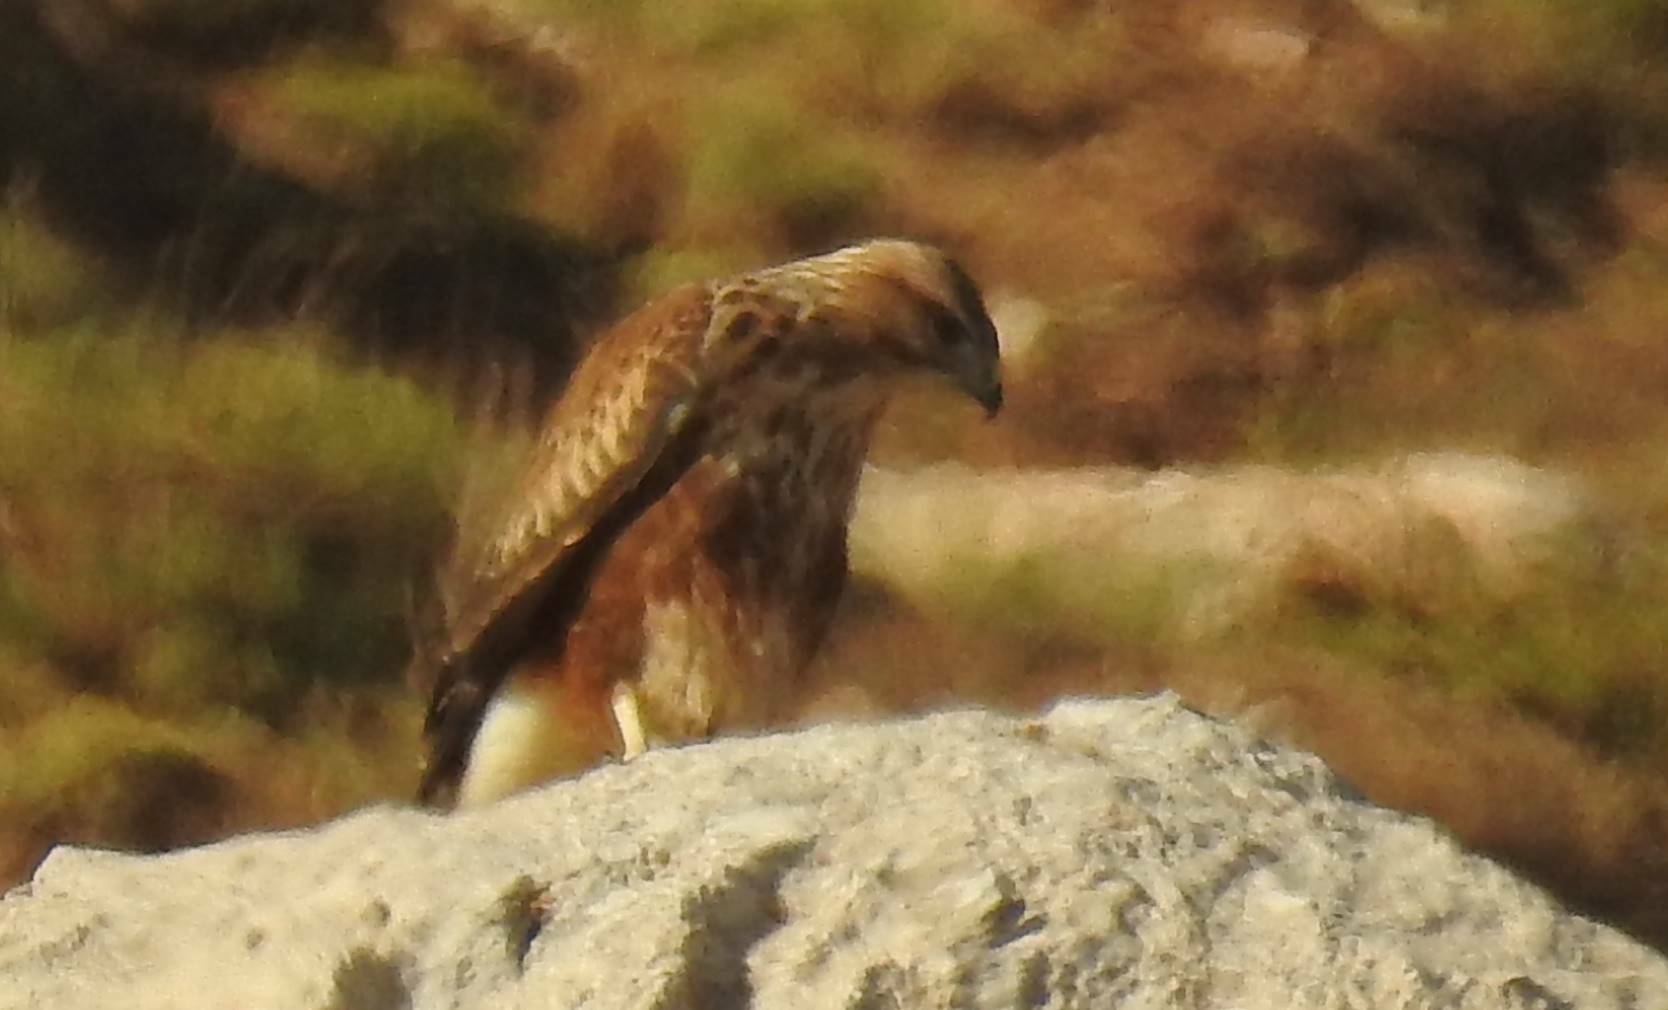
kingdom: Animalia
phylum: Chordata
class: Aves
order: Accipitriformes
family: Accipitridae
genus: Buteo
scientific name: Buteo rufinus
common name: Long-legged buzzard
